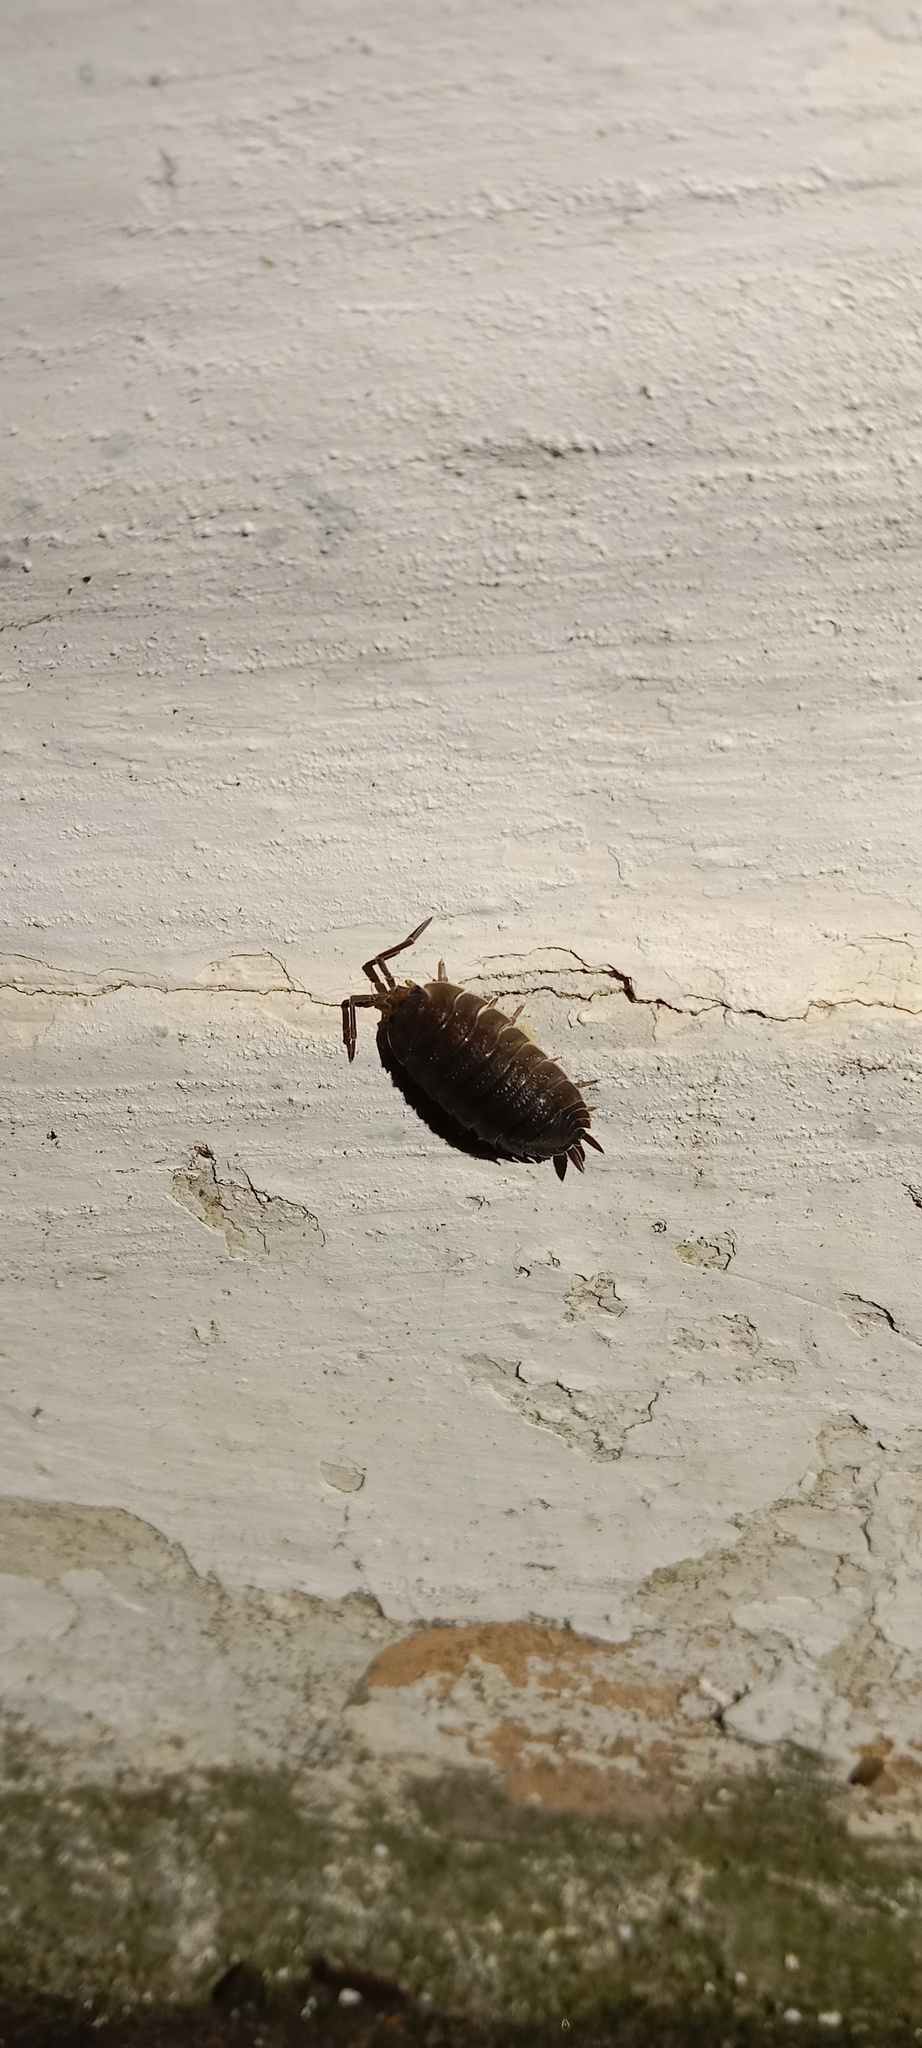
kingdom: Animalia
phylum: Arthropoda
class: Malacostraca
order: Isopoda
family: Porcellionidae
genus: Porcellio
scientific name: Porcellio scaber
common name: Common rough woodlouse
